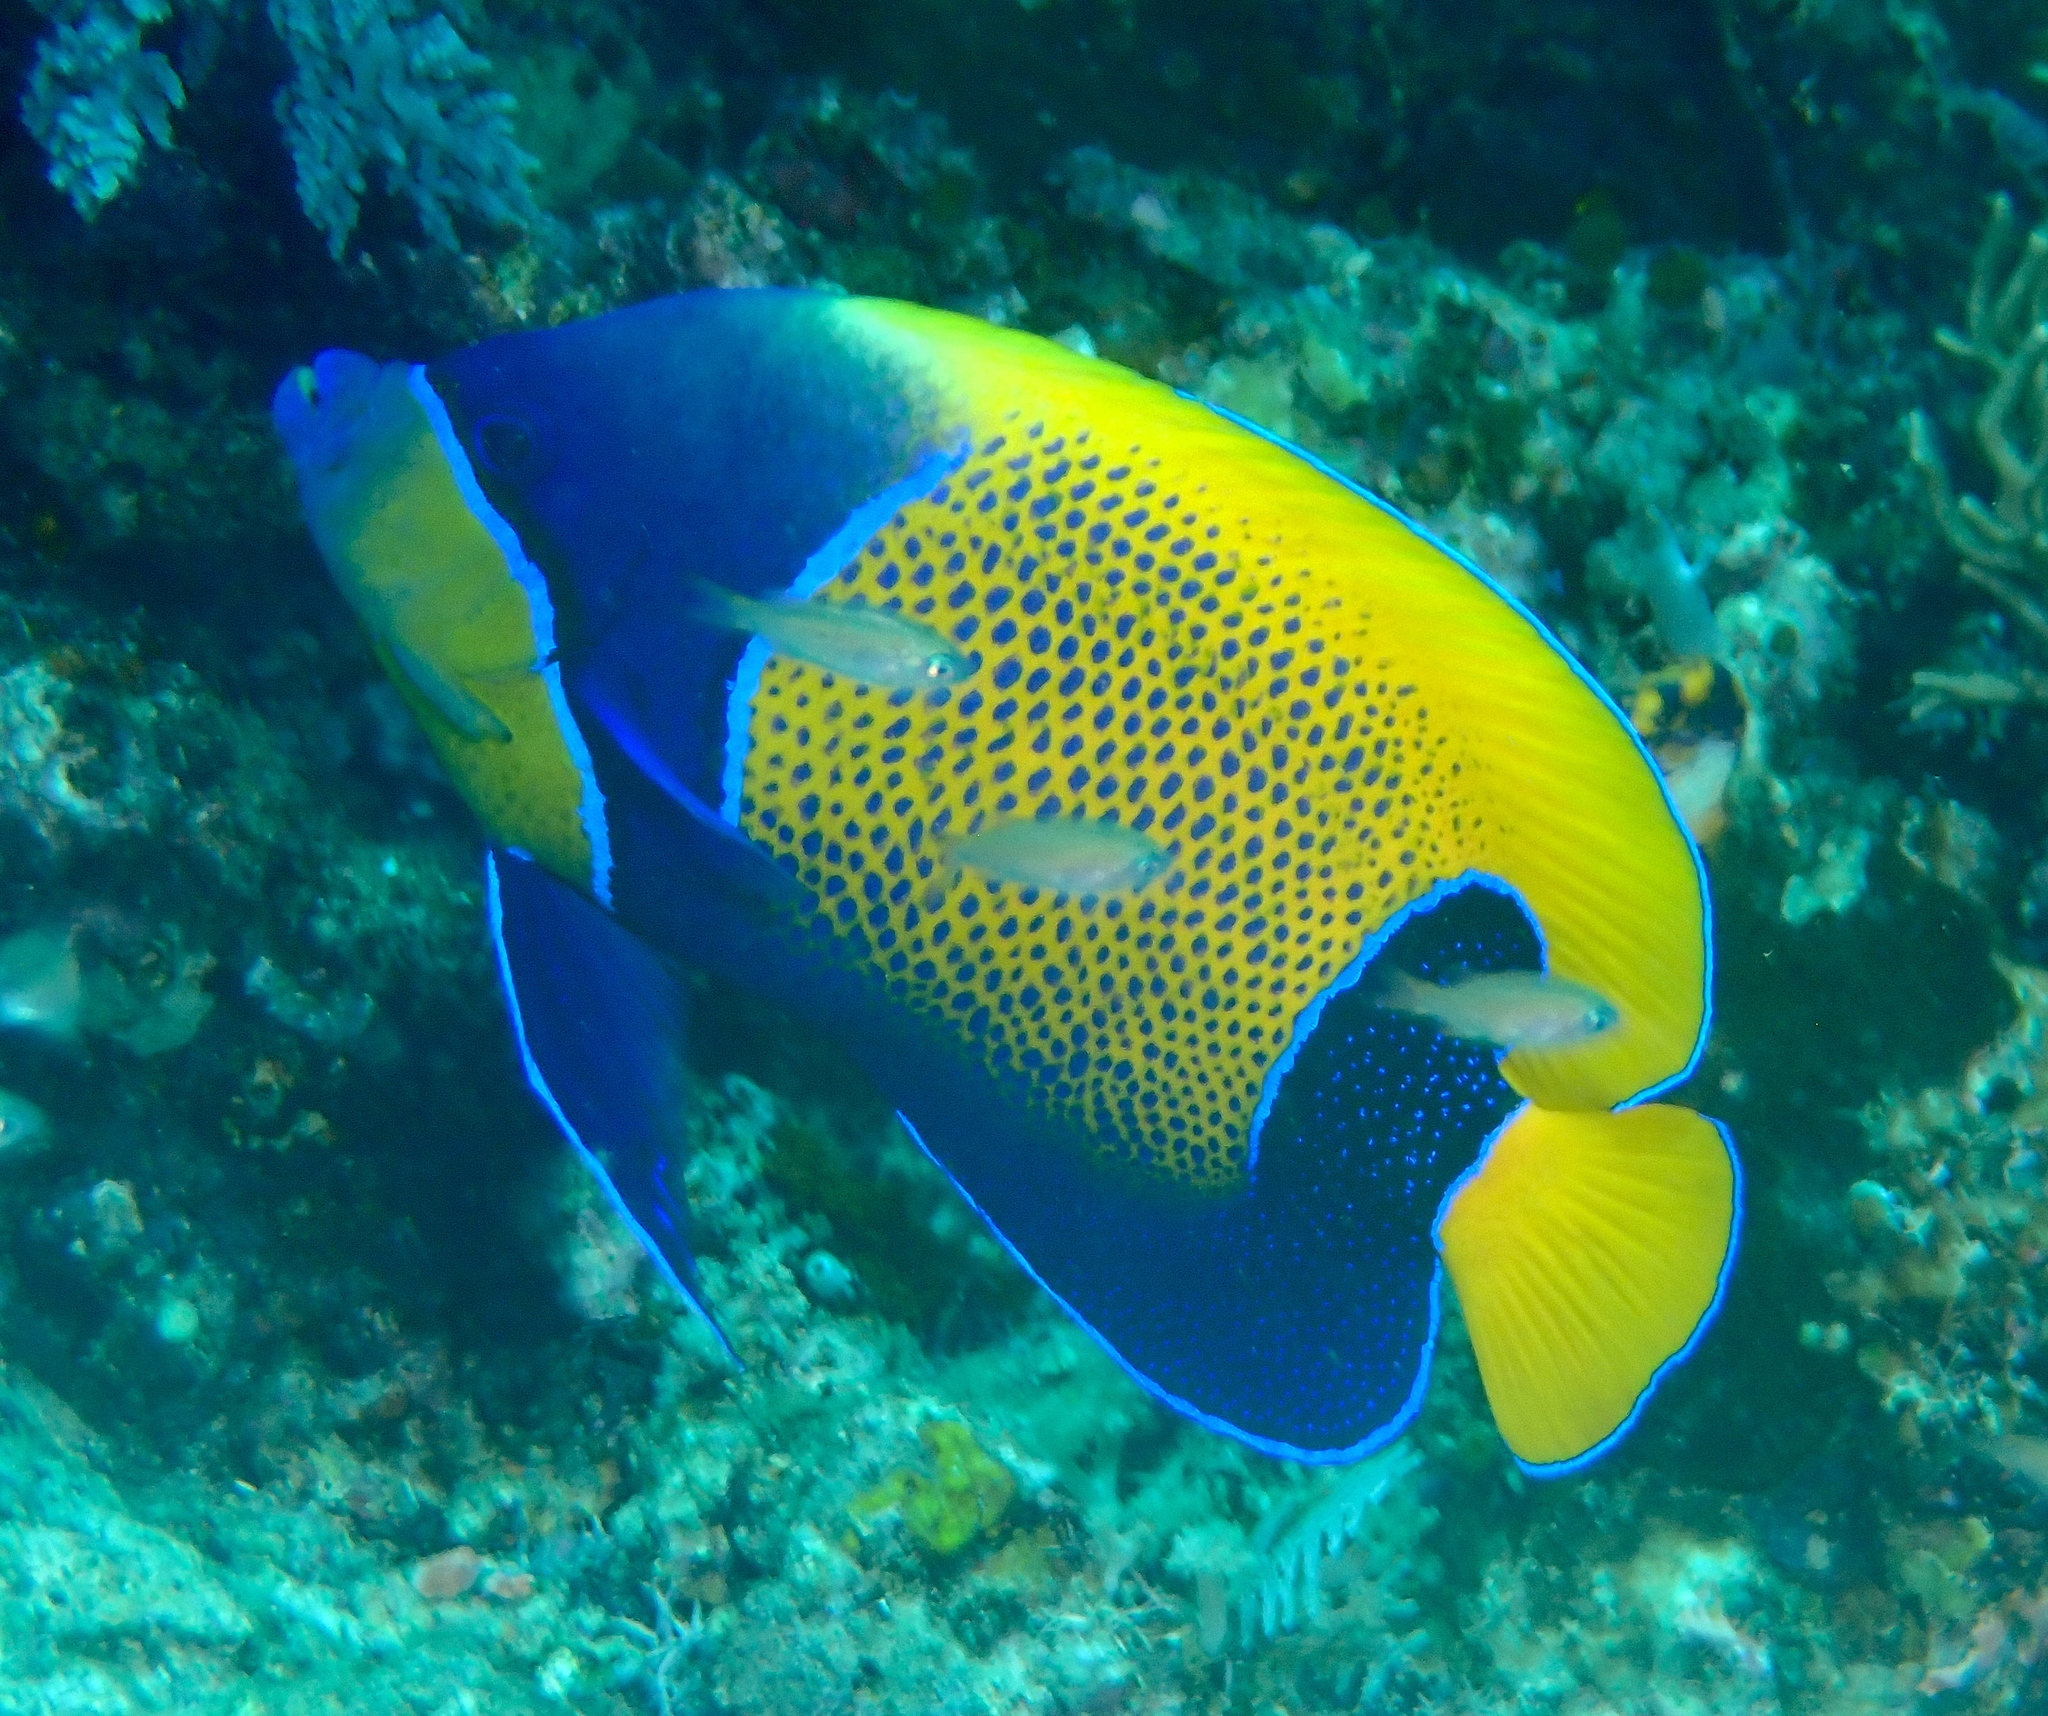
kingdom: Animalia
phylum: Chordata
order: Perciformes
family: Pomacanthidae
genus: Pomacanthus
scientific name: Pomacanthus navarchus
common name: Blue-girdled angelfish
